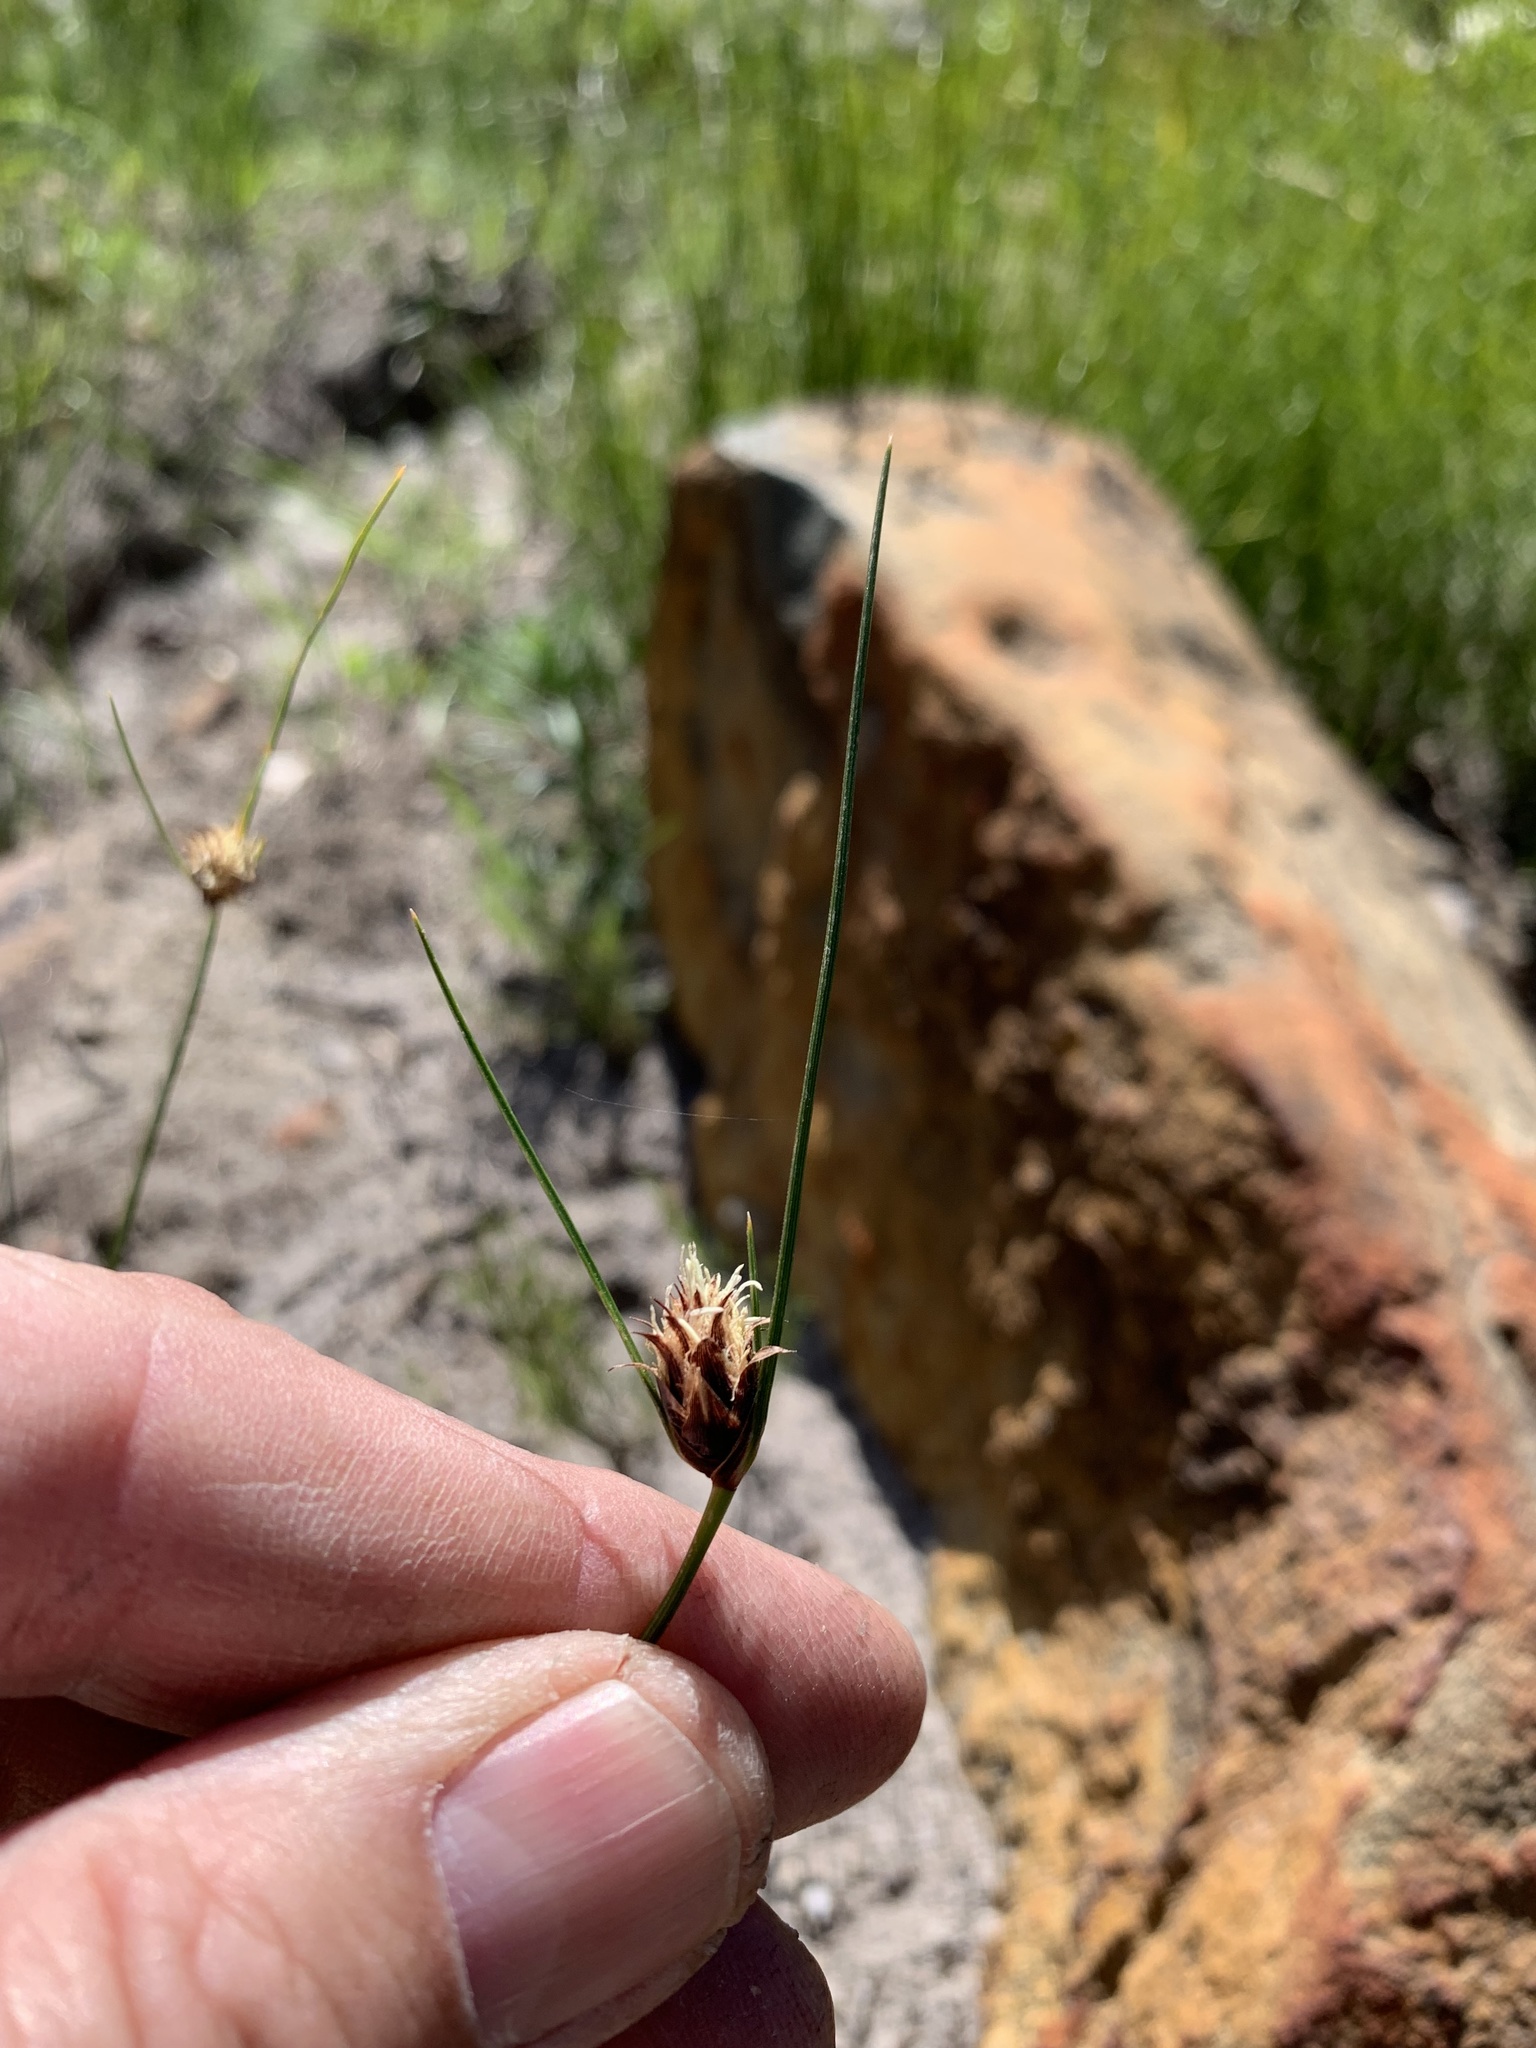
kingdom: Plantae
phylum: Tracheophyta
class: Liliopsida
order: Poales
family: Cyperaceae
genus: Ficinia
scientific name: Ficinia nigrescens
